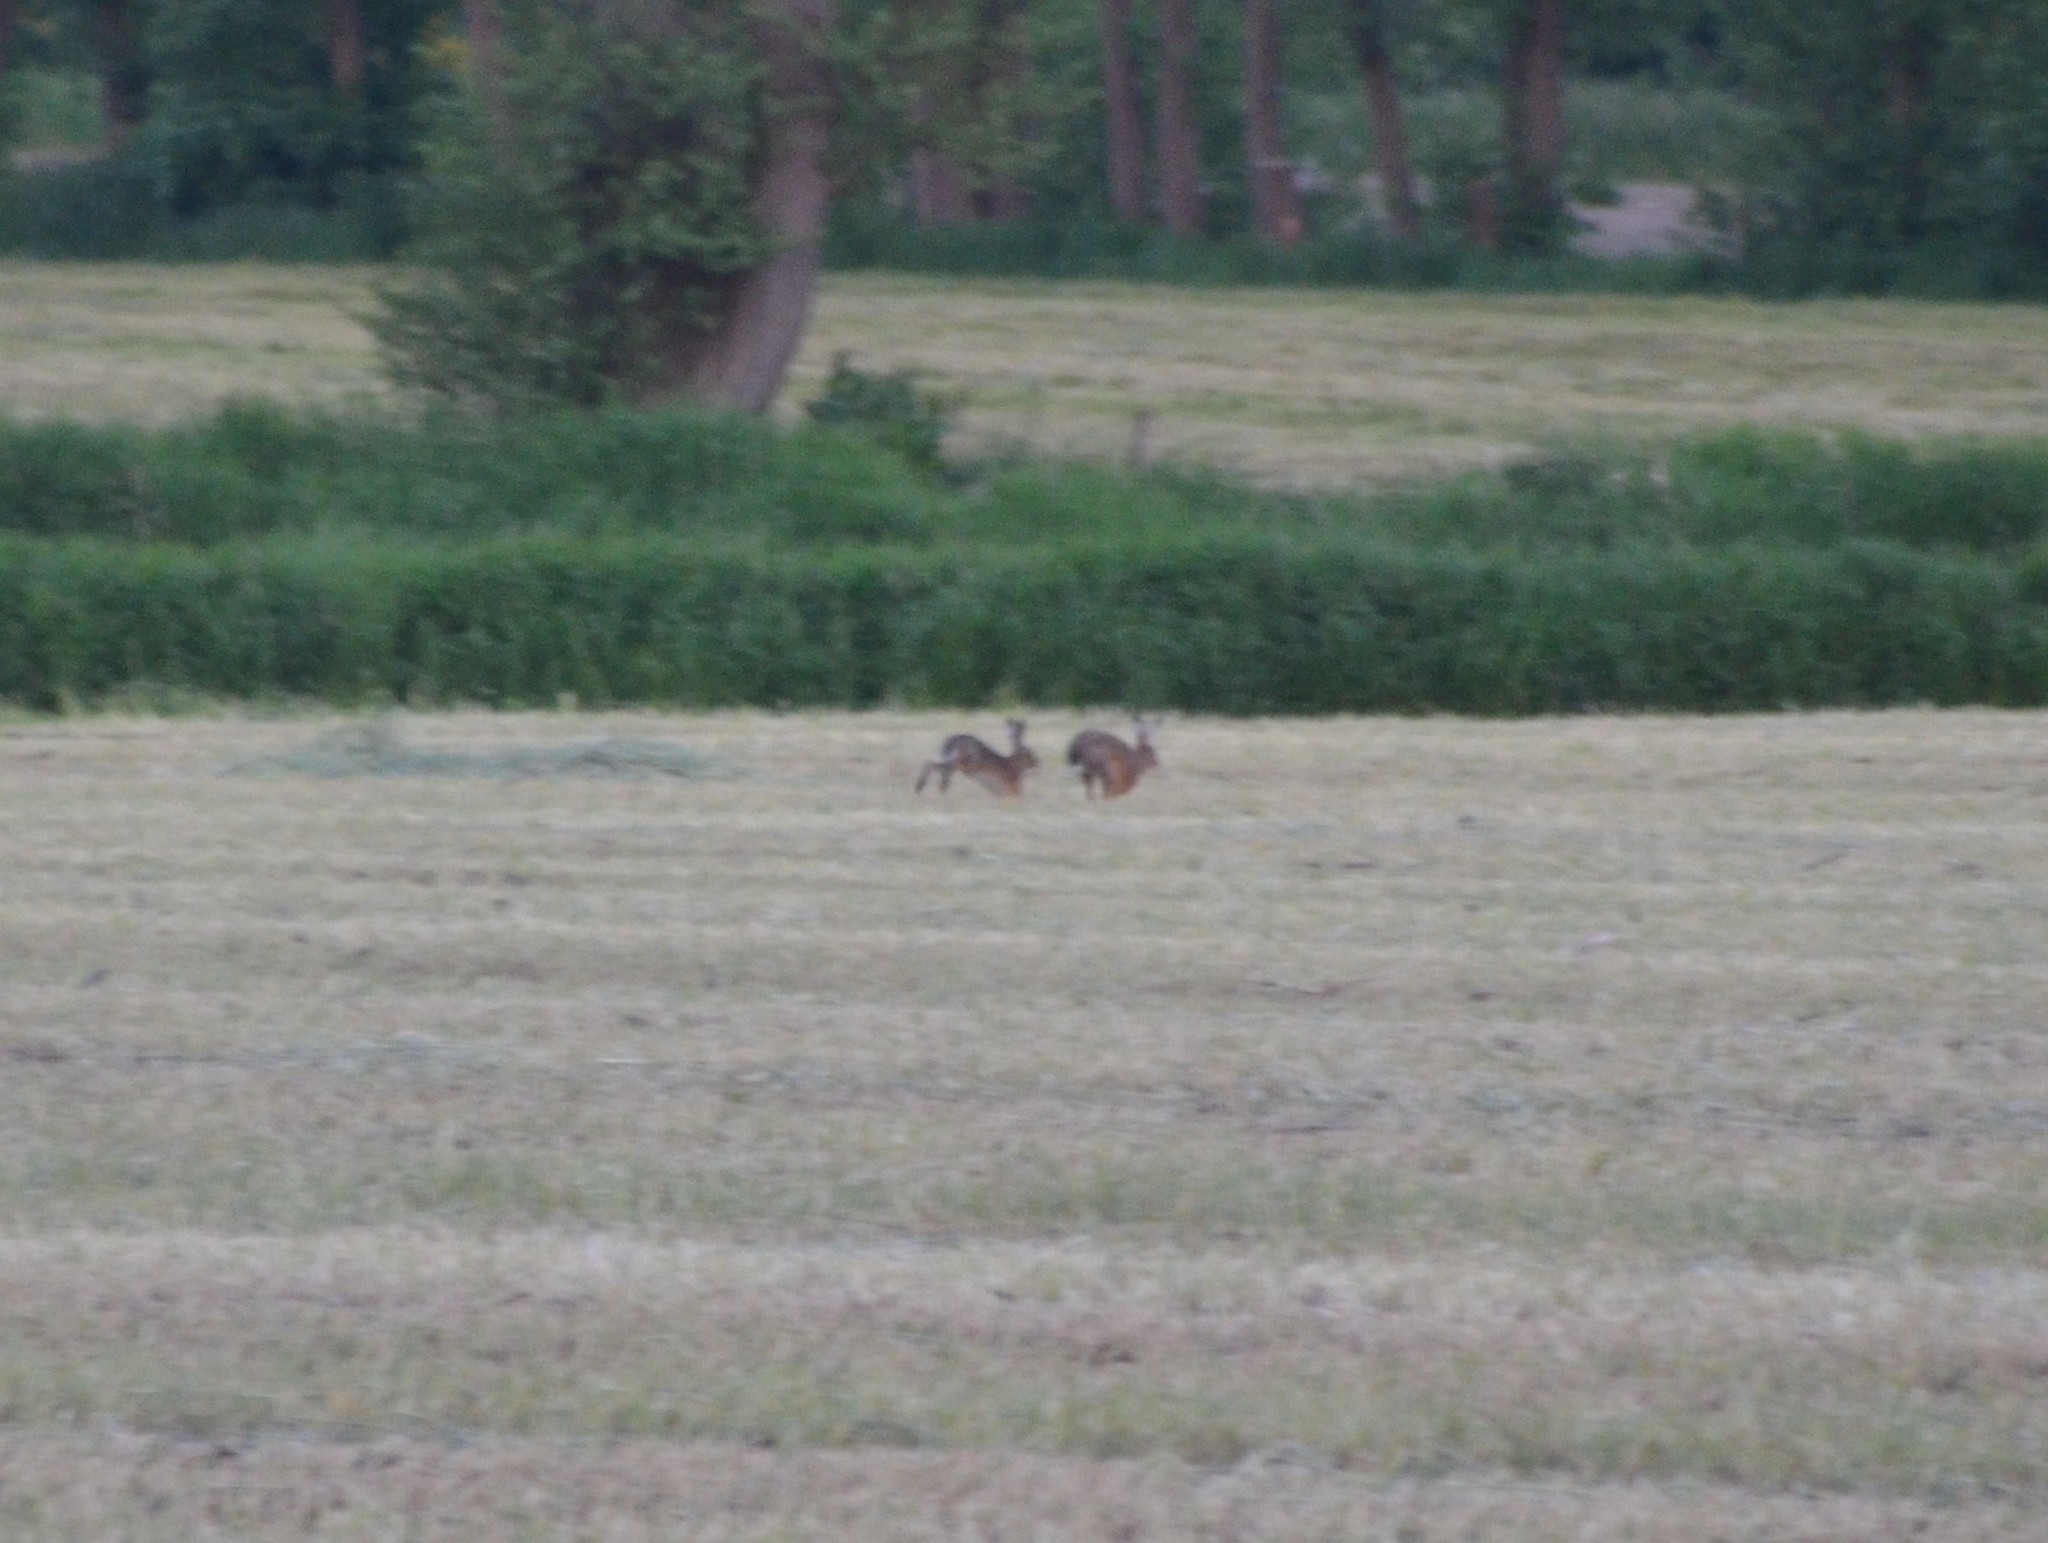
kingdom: Animalia
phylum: Chordata
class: Mammalia
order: Lagomorpha
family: Leporidae
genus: Lepus
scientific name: Lepus europaeus
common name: European hare
